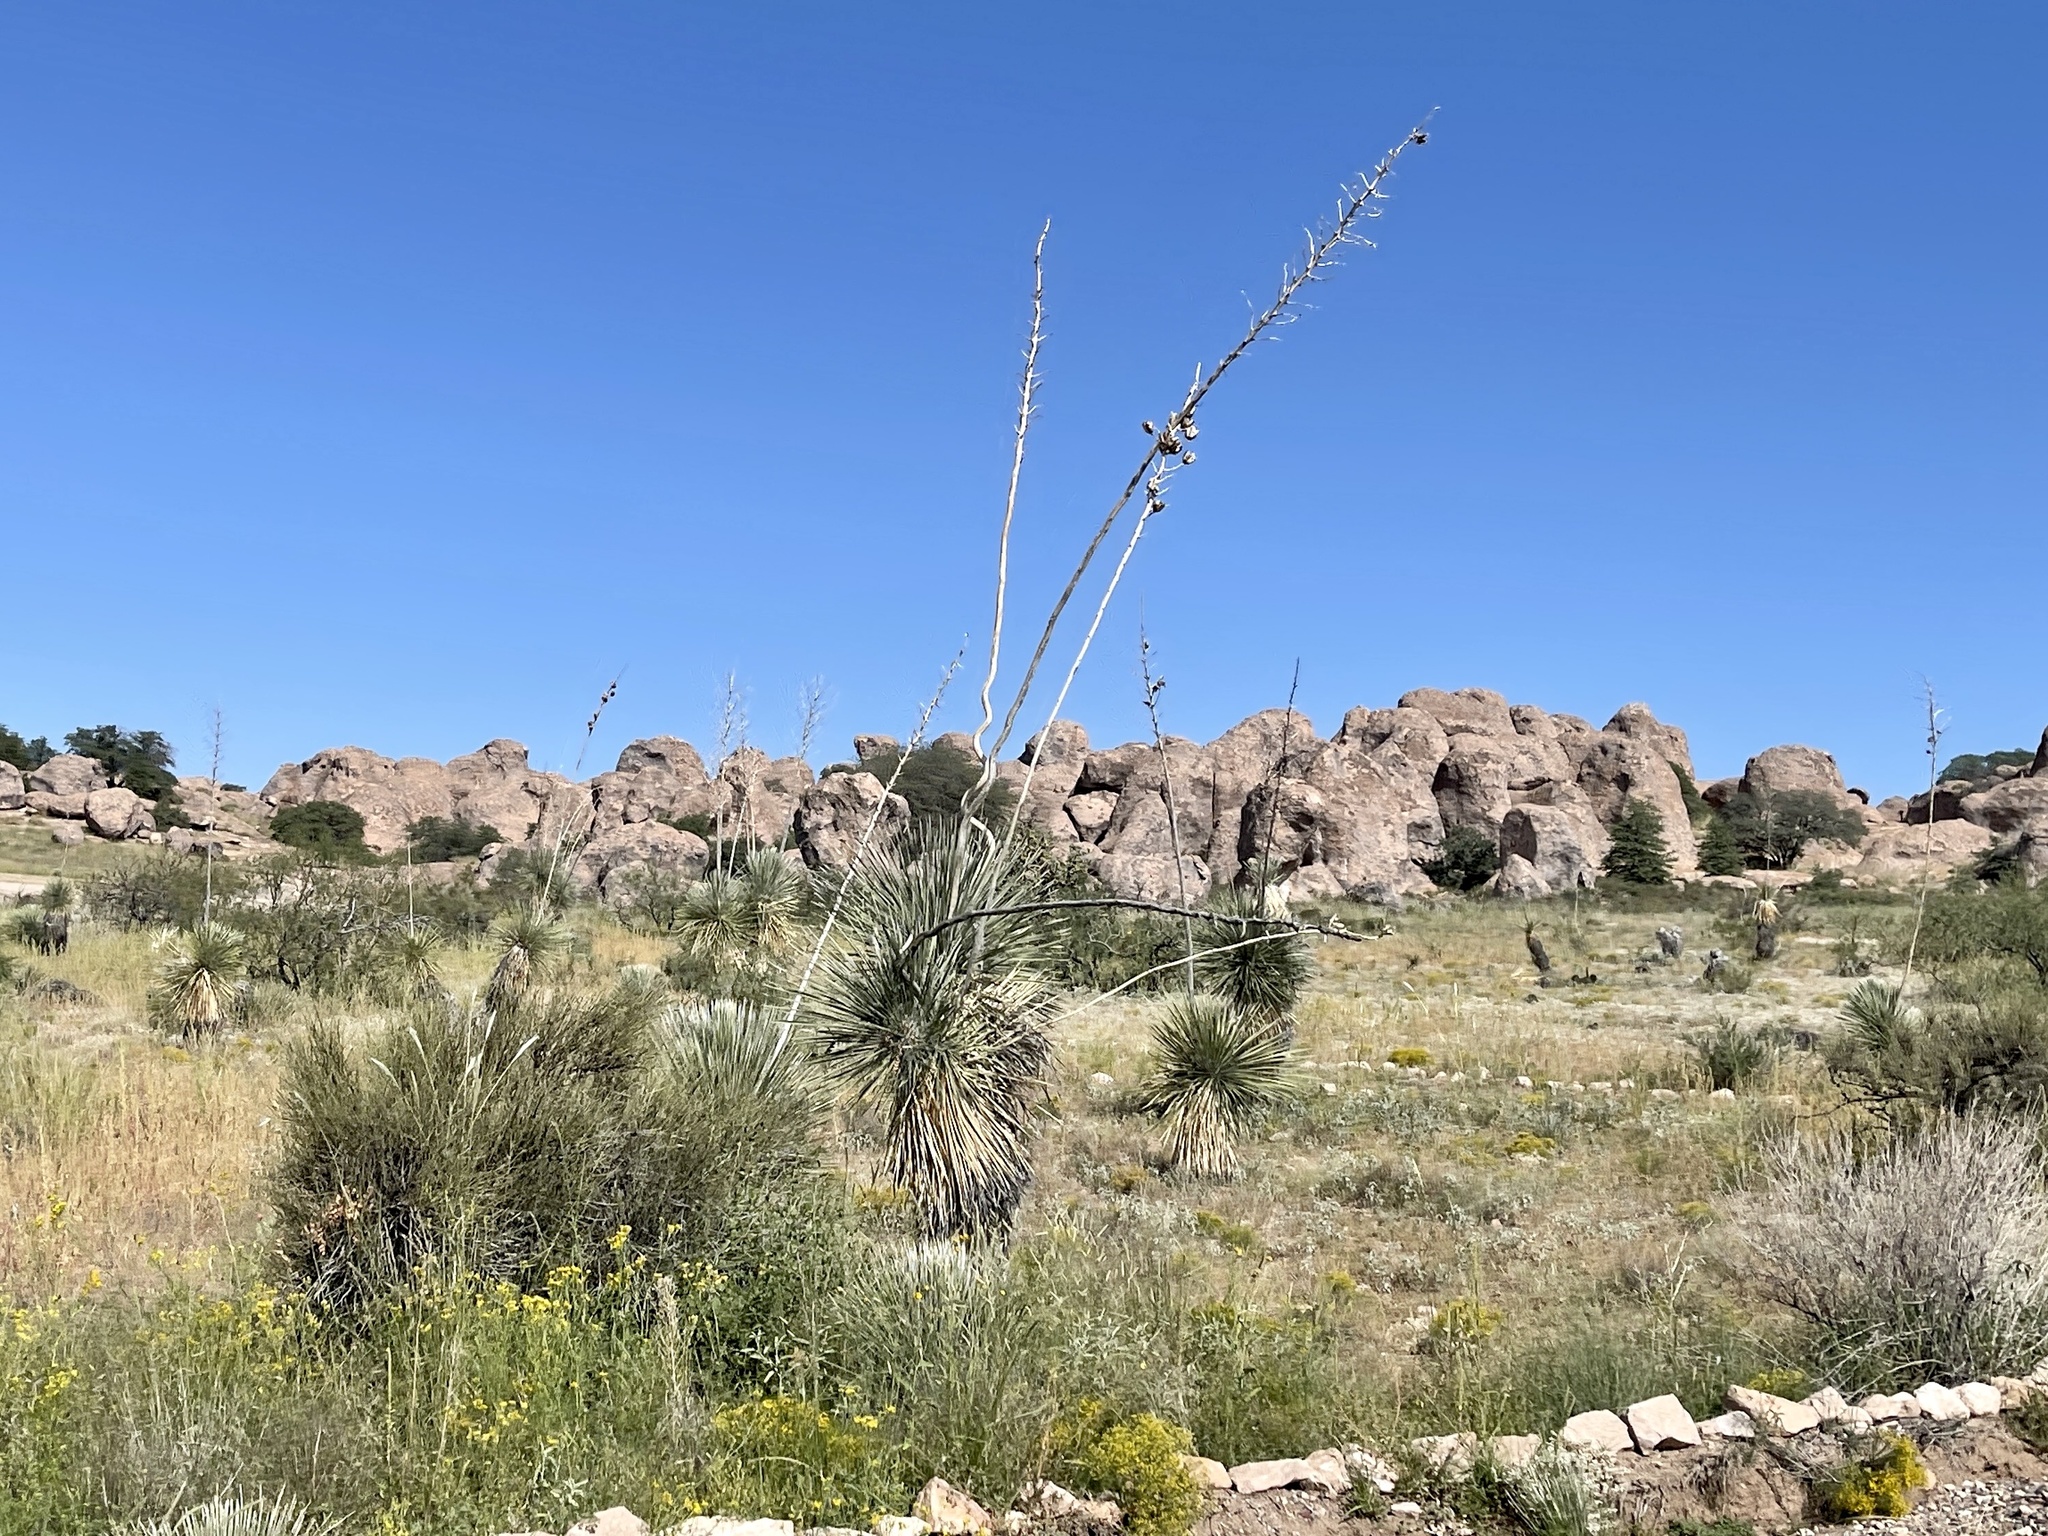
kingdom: Plantae
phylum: Tracheophyta
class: Liliopsida
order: Asparagales
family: Asparagaceae
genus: Yucca
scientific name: Yucca elata
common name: Palmella
